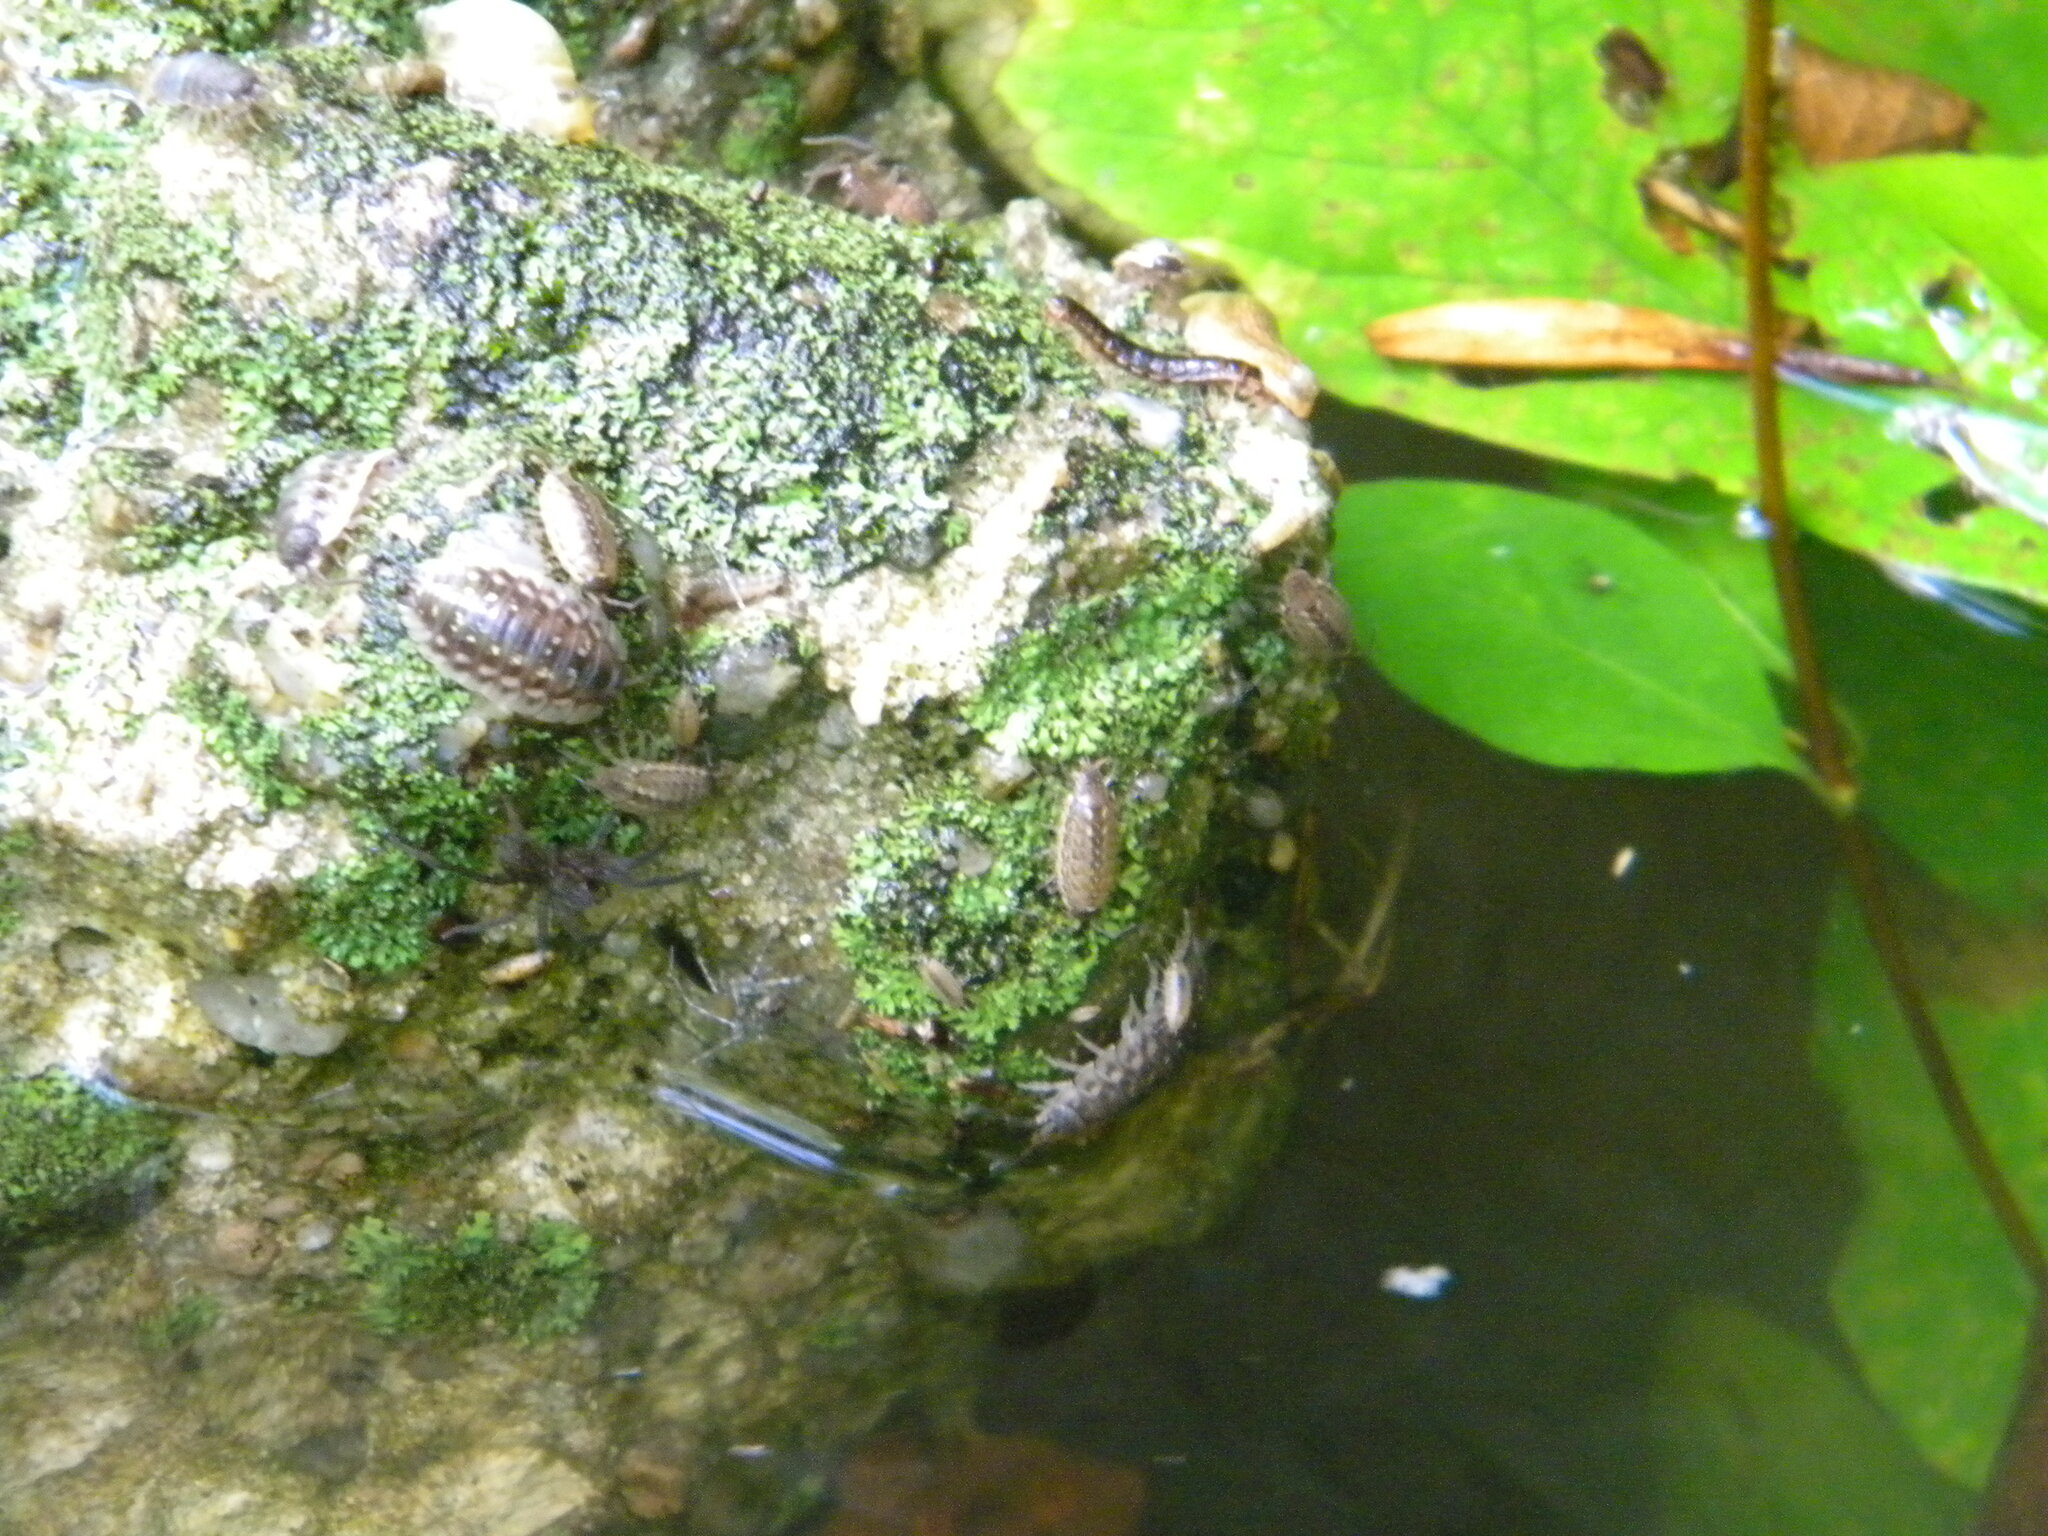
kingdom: Animalia
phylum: Arthropoda
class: Malacostraca
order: Isopoda
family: Oniscidae
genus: Oniscus
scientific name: Oniscus asellus
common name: Common shiny woodlouse
